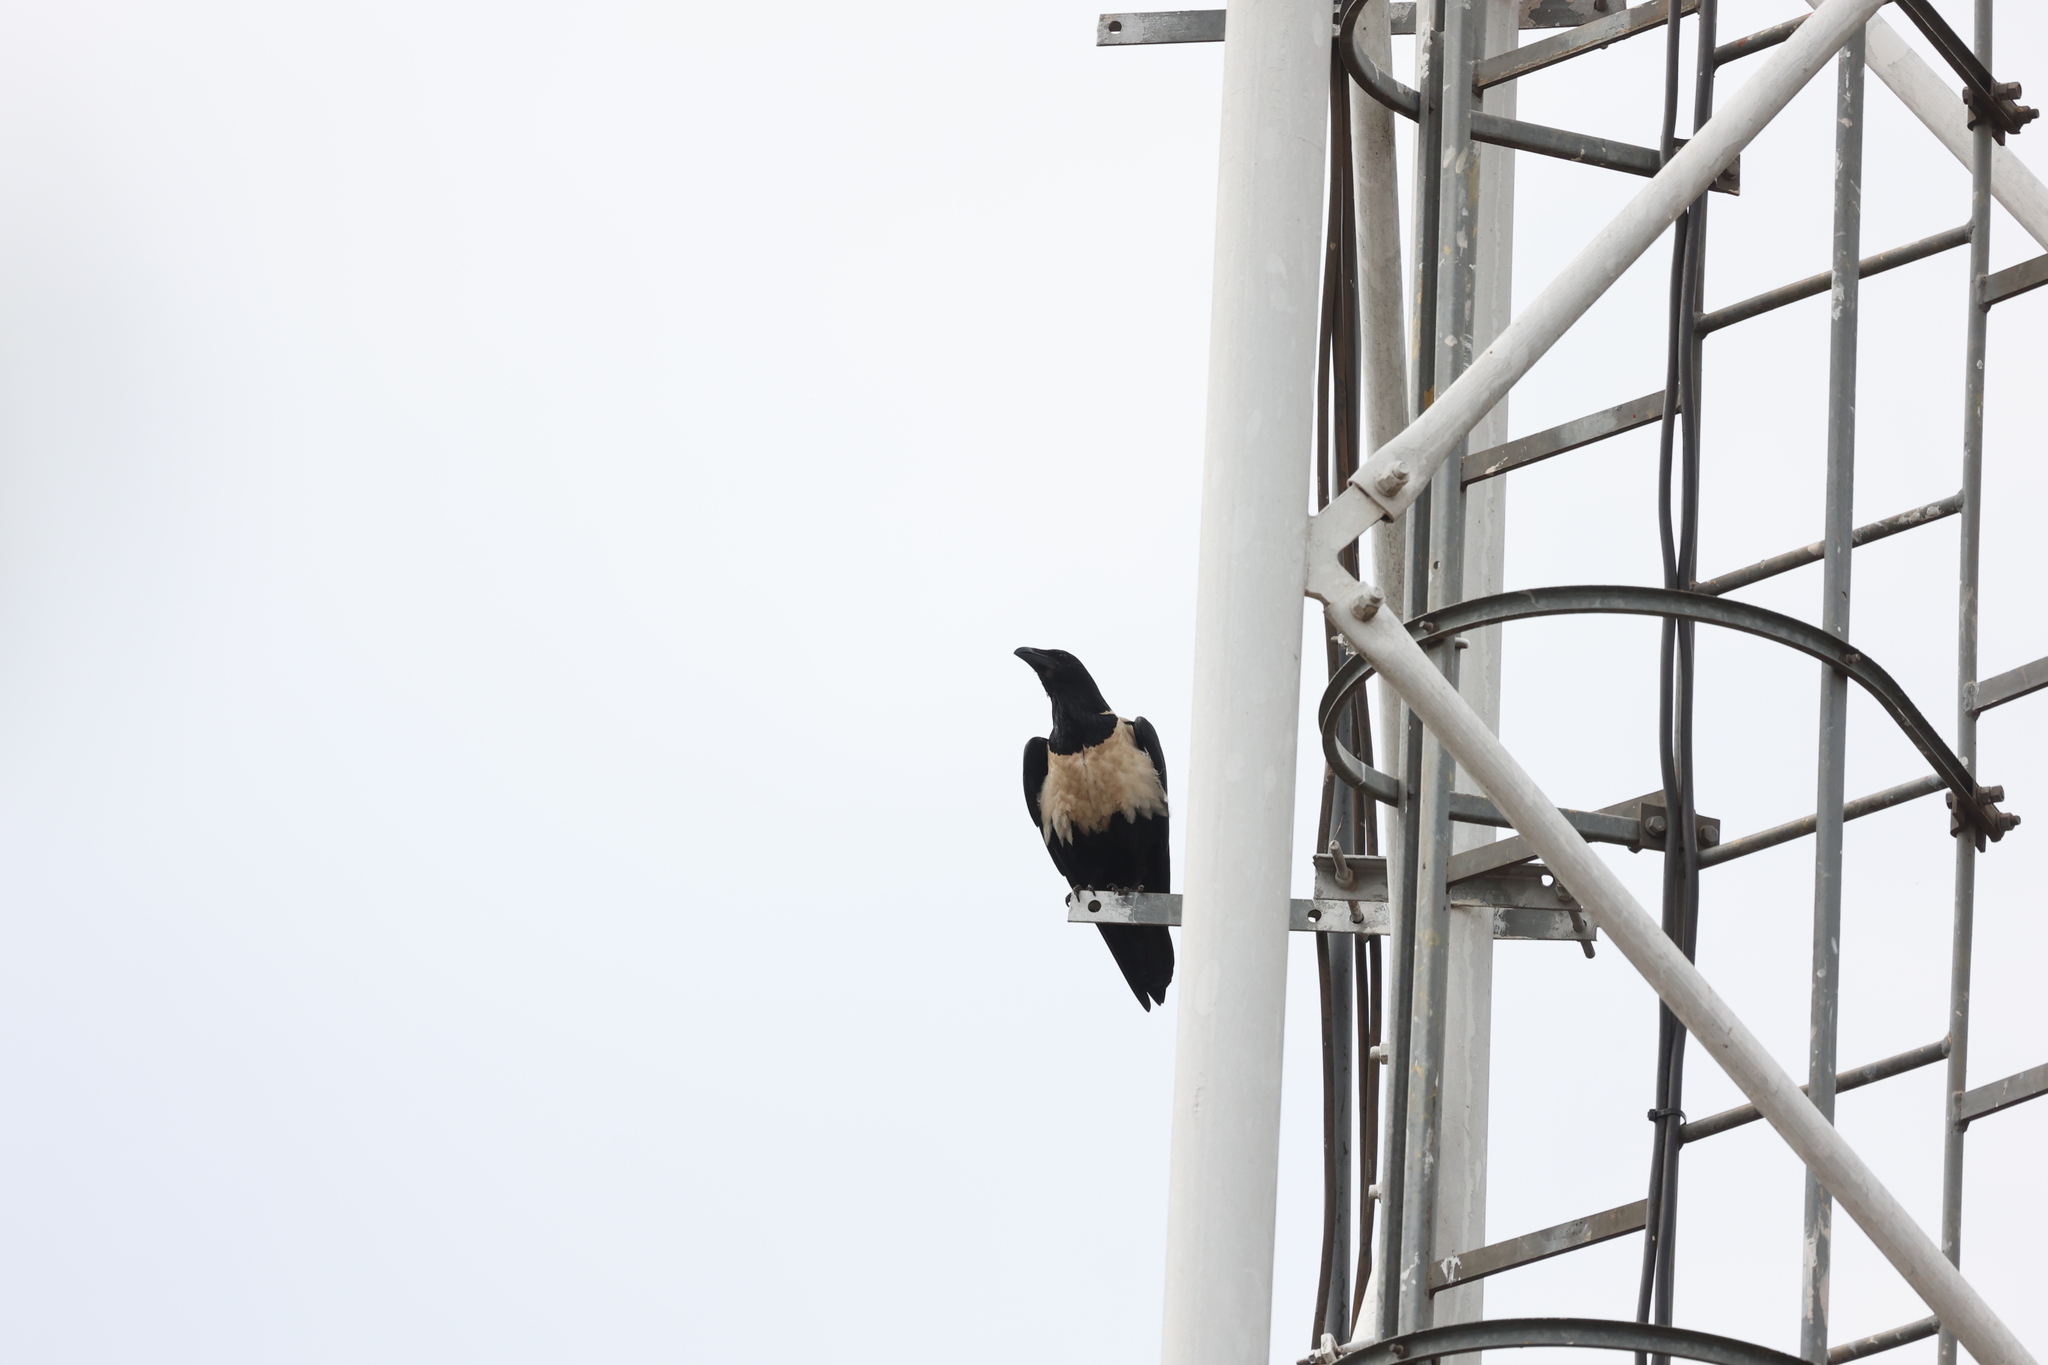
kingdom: Animalia
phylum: Chordata
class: Aves
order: Passeriformes
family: Corvidae
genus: Corvus
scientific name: Corvus albus
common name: Pied crow
